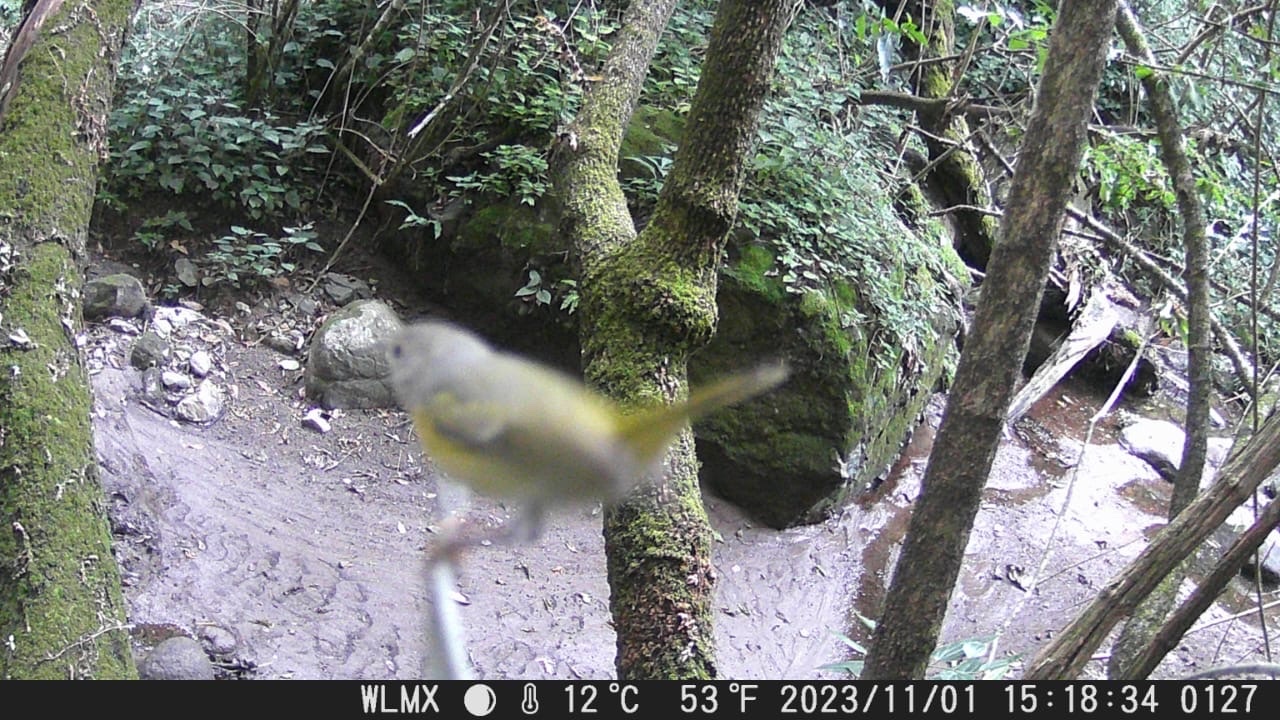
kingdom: Animalia
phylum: Chordata
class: Aves
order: Passeriformes
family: Parulidae
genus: Leiothlypis
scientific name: Leiothlypis ruficapilla
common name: Nashville warbler
